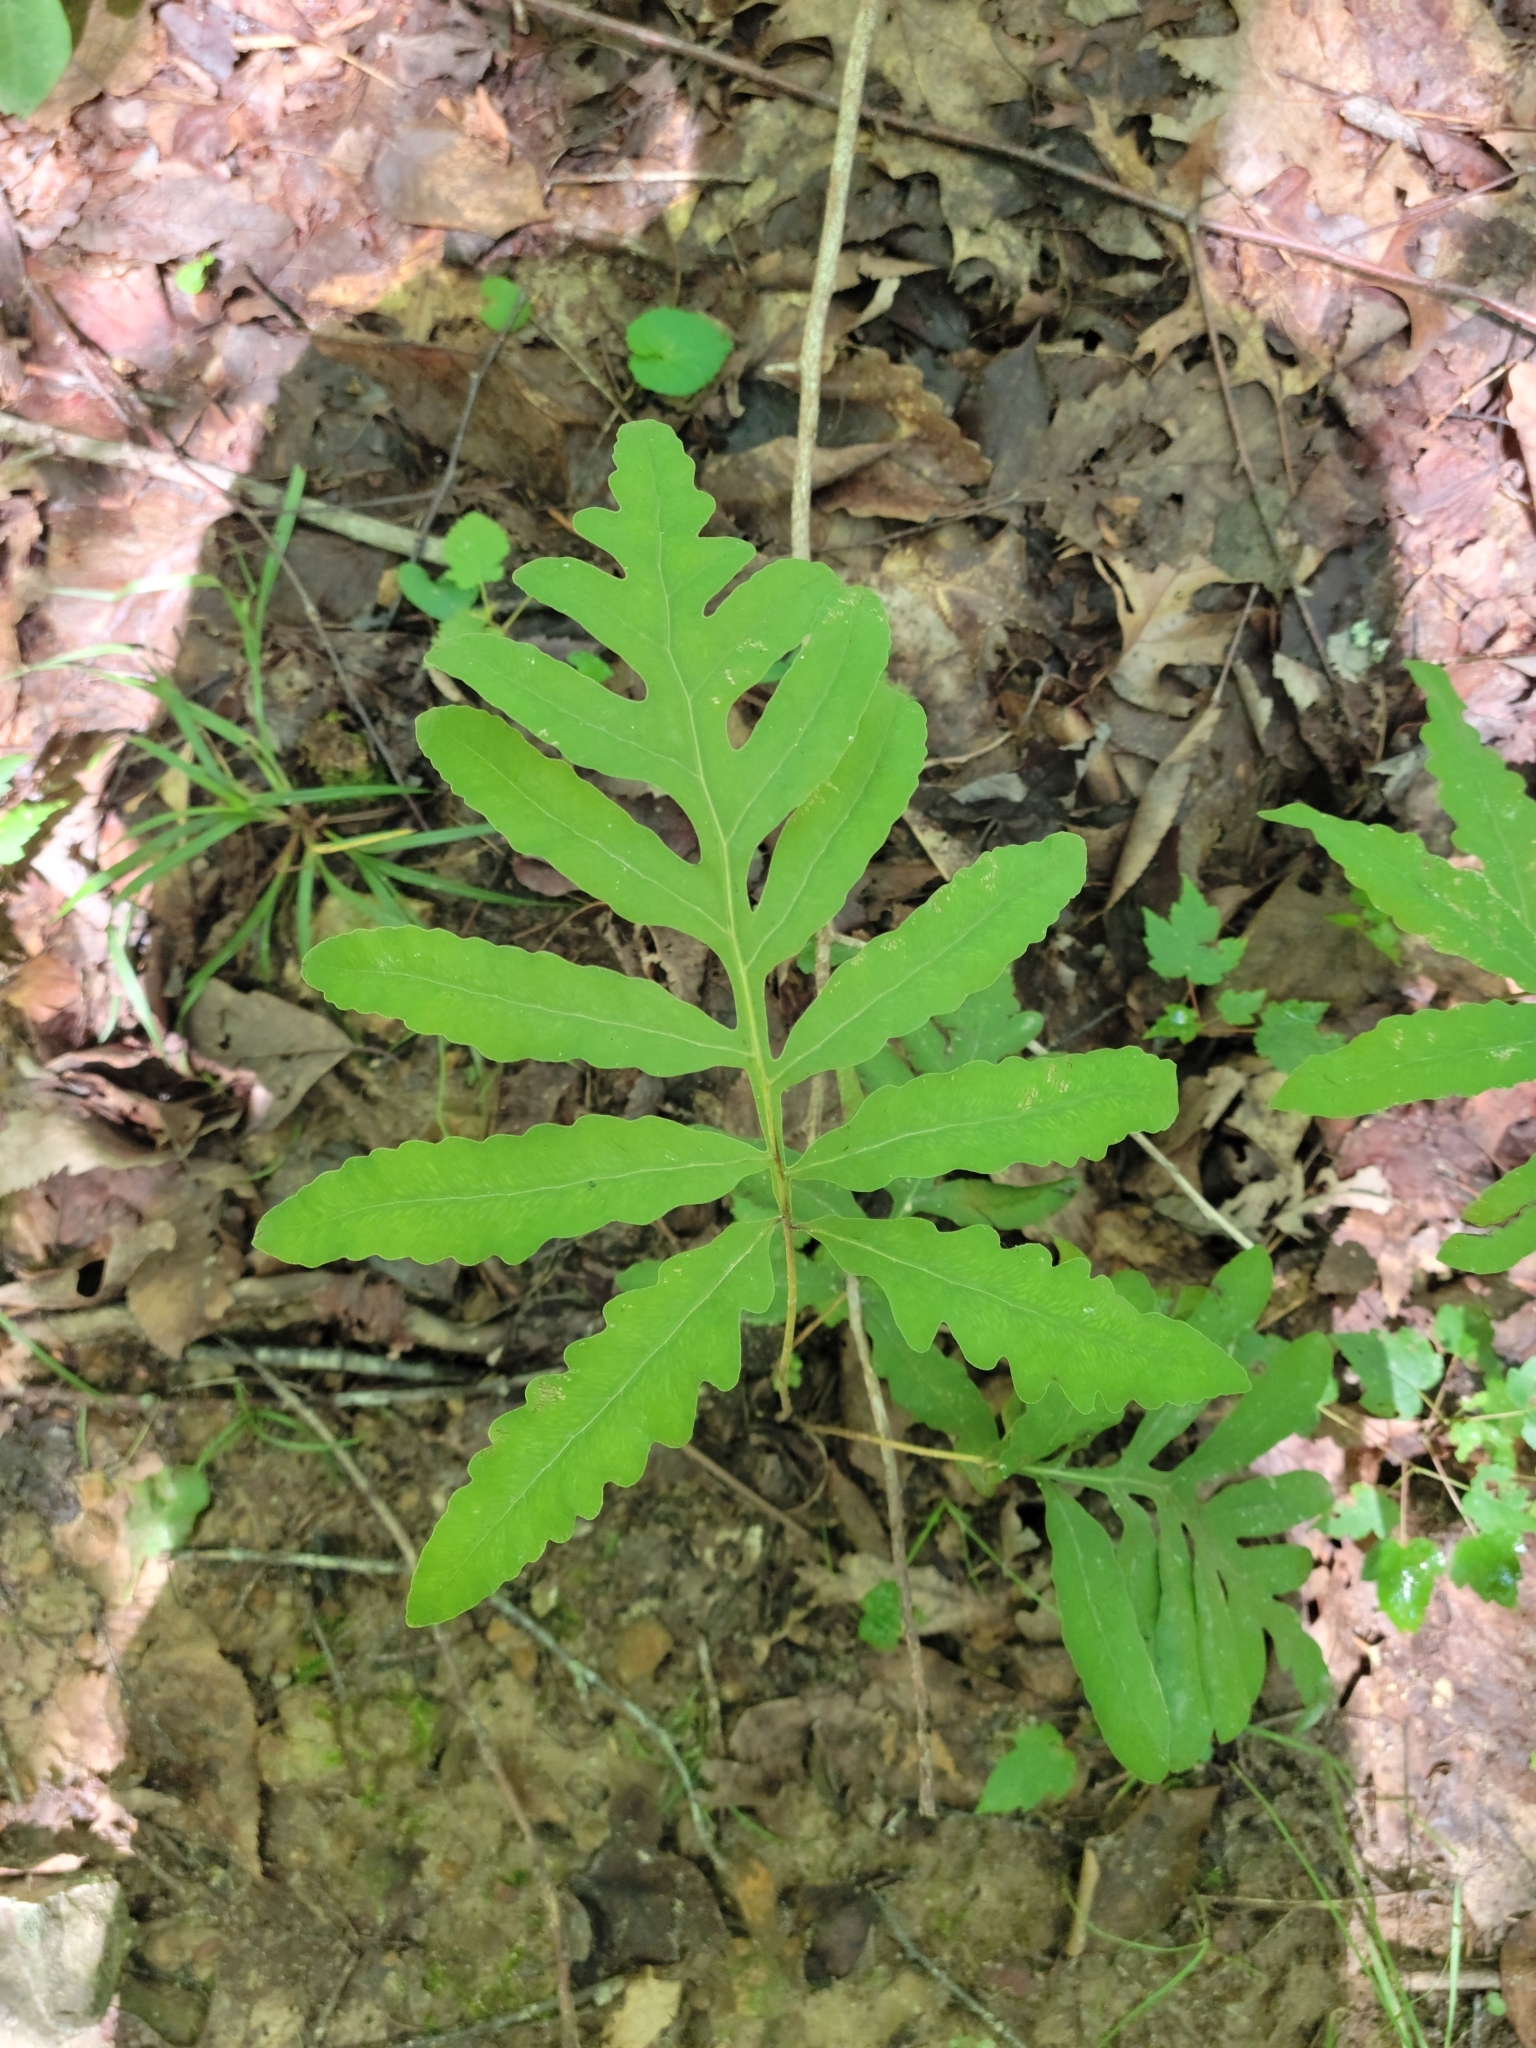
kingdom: Plantae
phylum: Tracheophyta
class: Polypodiopsida
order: Polypodiales
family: Onocleaceae
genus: Onoclea
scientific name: Onoclea sensibilis
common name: Sensitive fern
